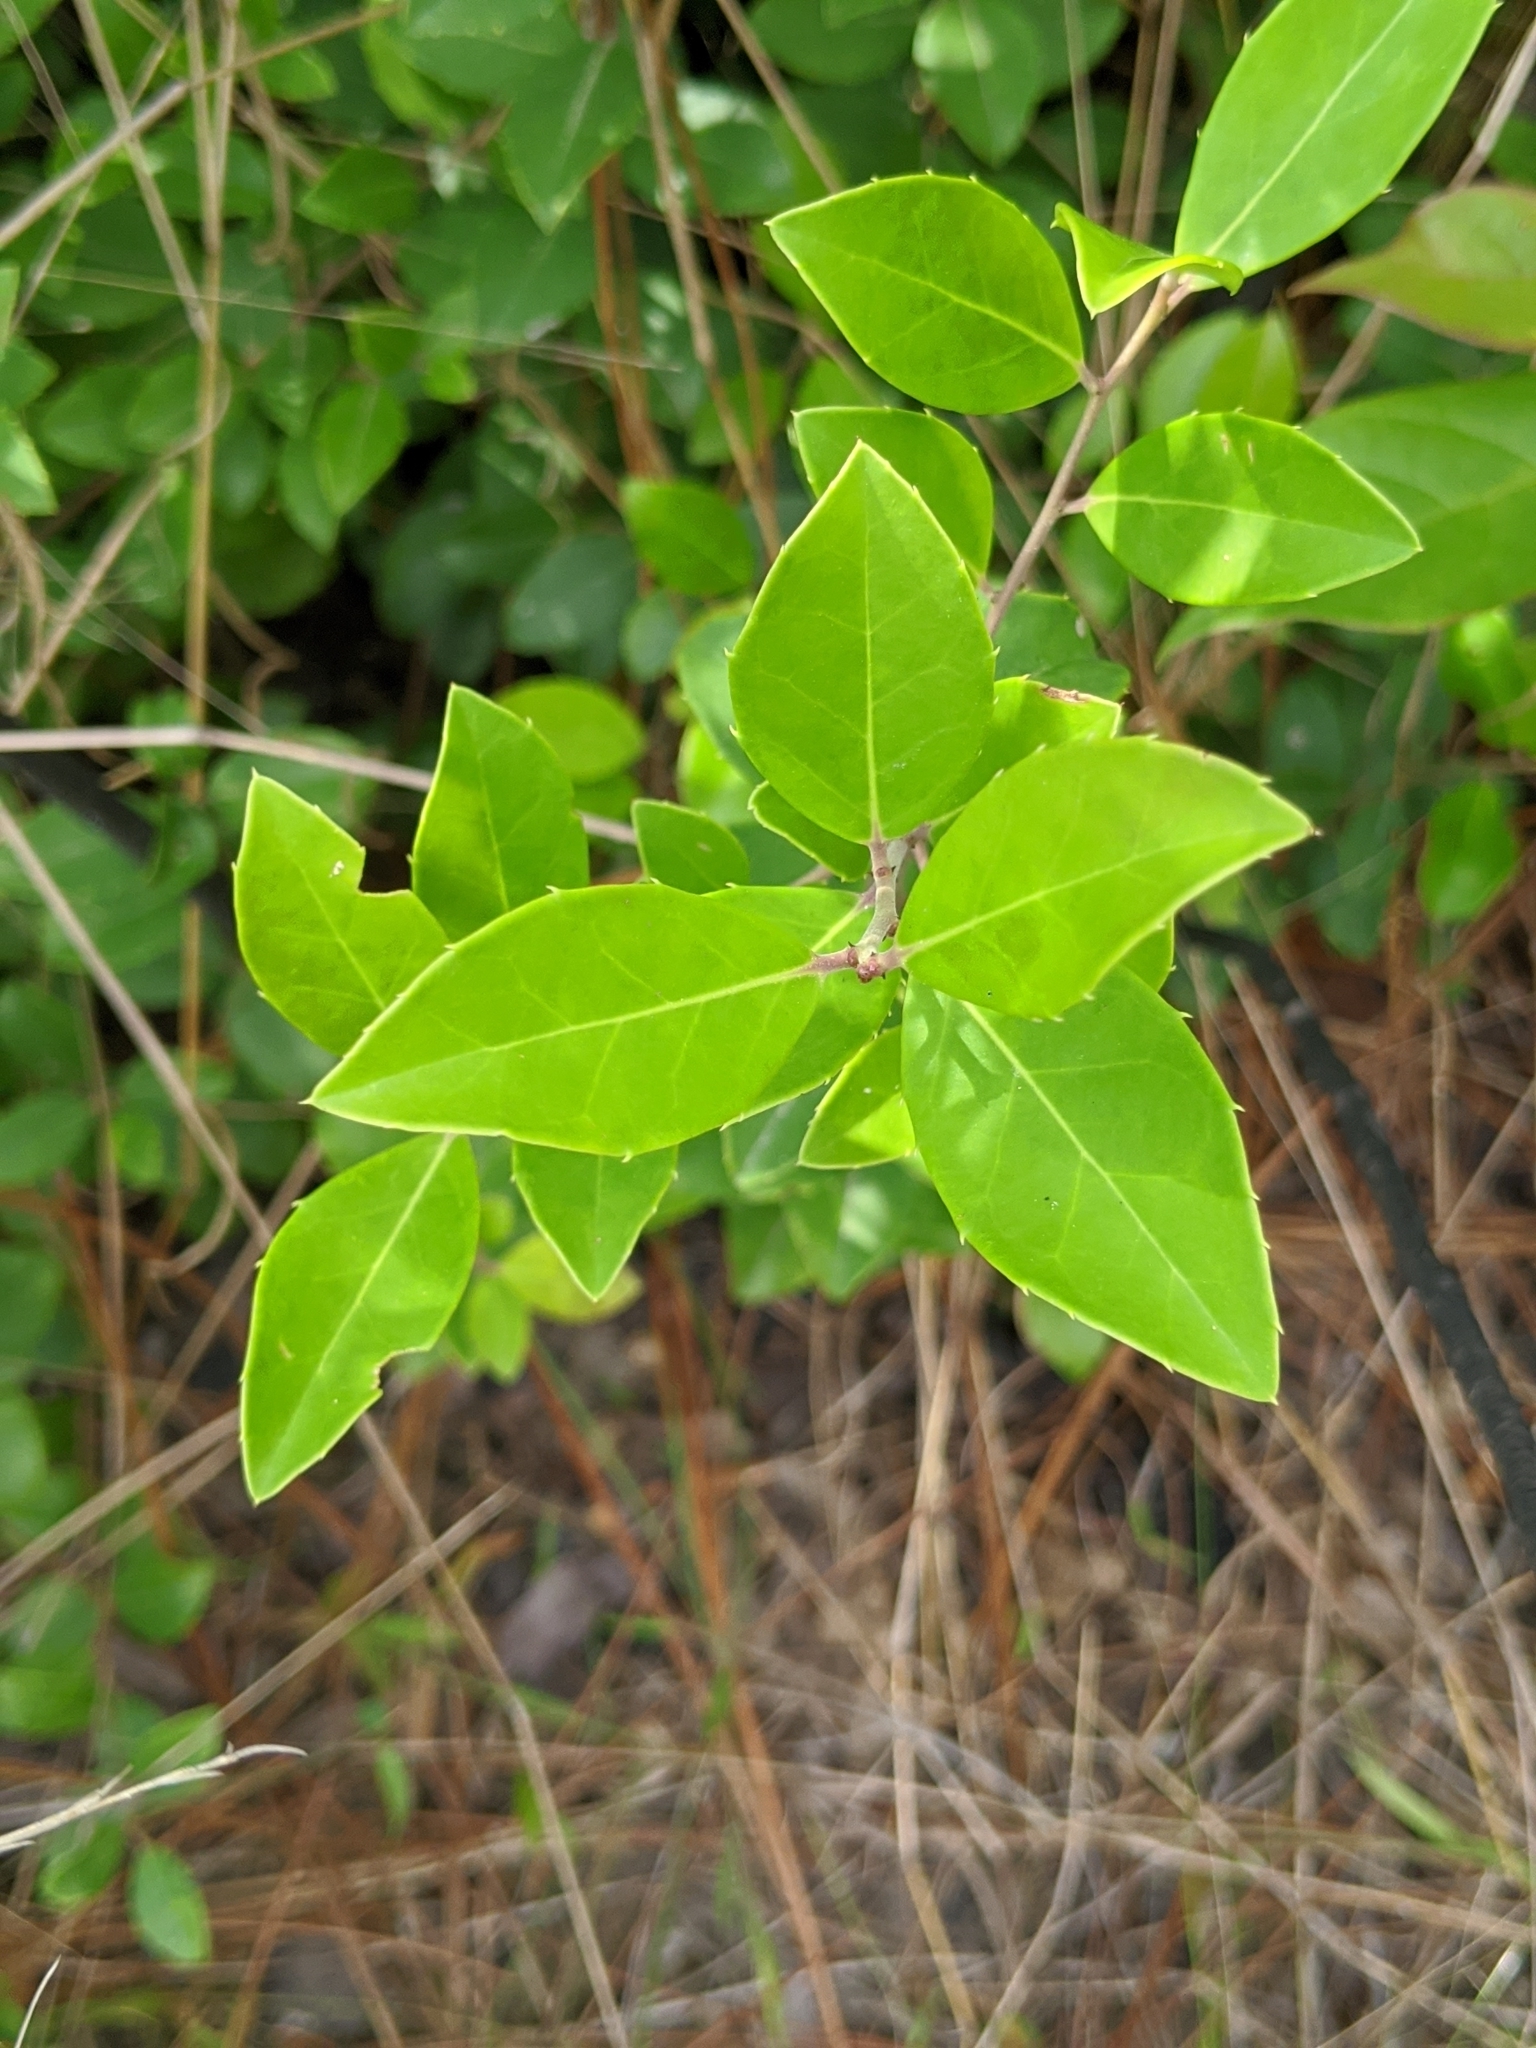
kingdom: Plantae
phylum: Tracheophyta
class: Magnoliopsida
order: Aquifoliales
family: Aquifoliaceae
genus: Ilex
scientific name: Ilex coriacea
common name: Sweet gallberry
